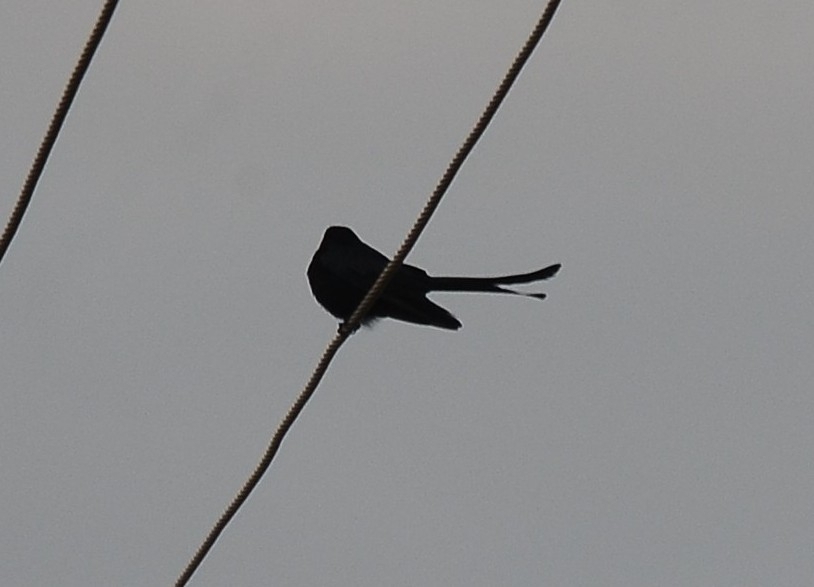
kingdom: Animalia
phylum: Chordata
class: Aves
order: Passeriformes
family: Dicruridae
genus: Dicrurus
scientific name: Dicrurus macrocercus
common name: Black drongo
